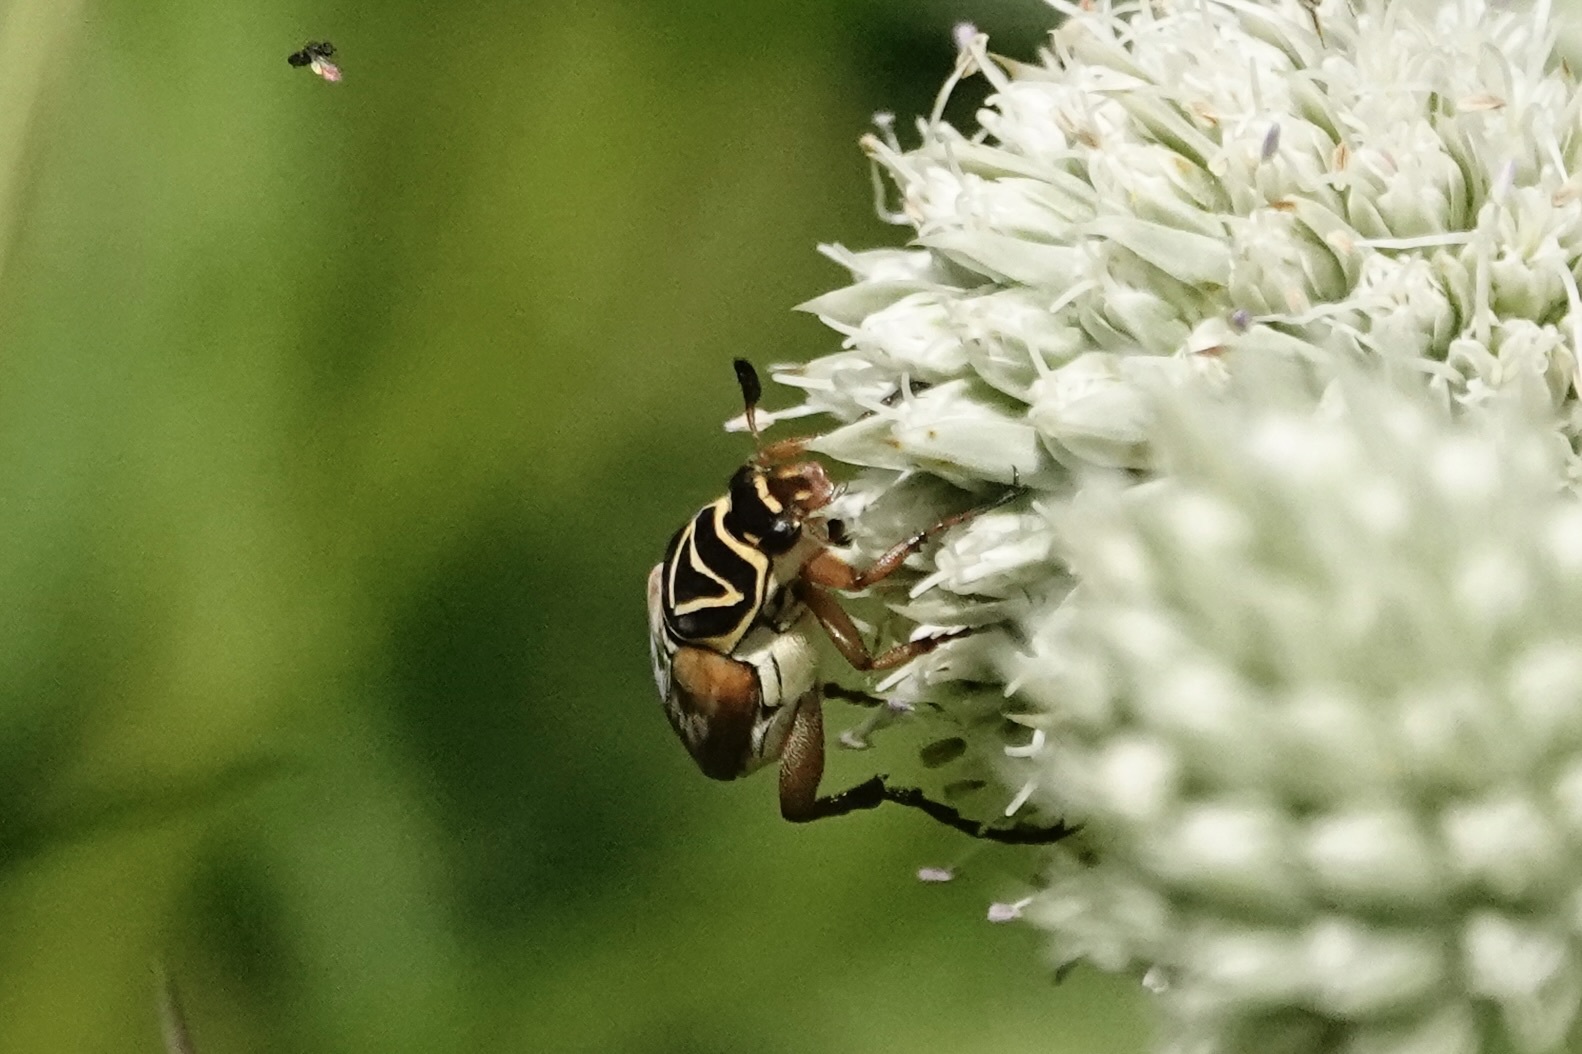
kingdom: Animalia
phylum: Arthropoda
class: Insecta
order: Coleoptera
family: Scarabaeidae
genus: Trigonopeltastes
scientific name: Trigonopeltastes delta
